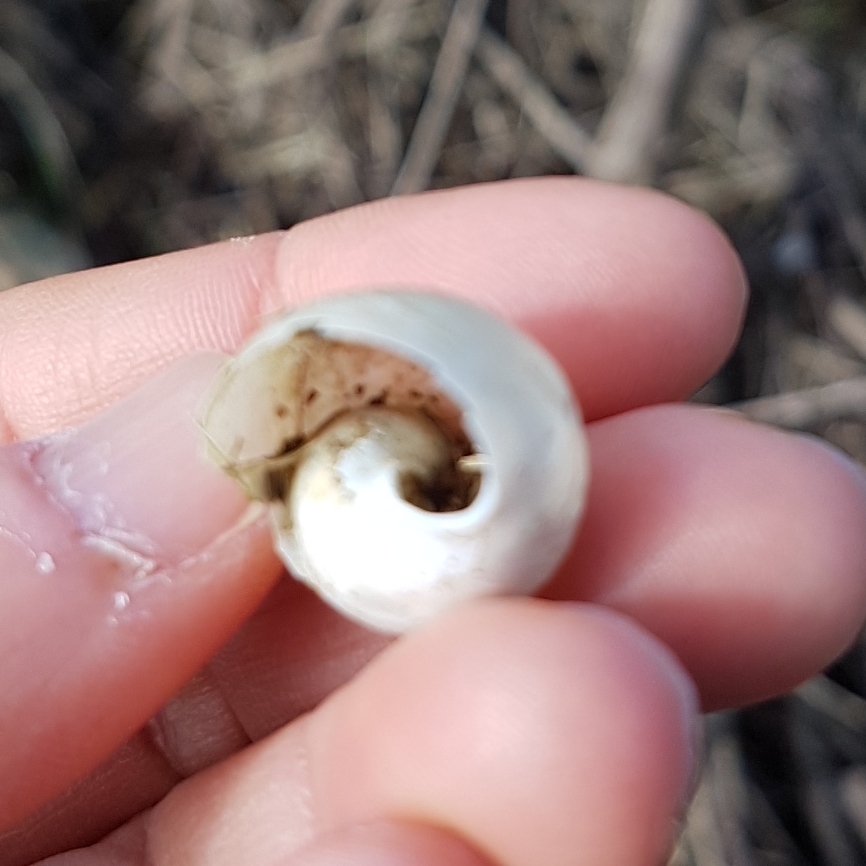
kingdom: Animalia
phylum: Mollusca
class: Gastropoda
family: Lymnaeidae
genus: Lymnaea
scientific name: Lymnaea stagnalis
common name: Great pond snail
